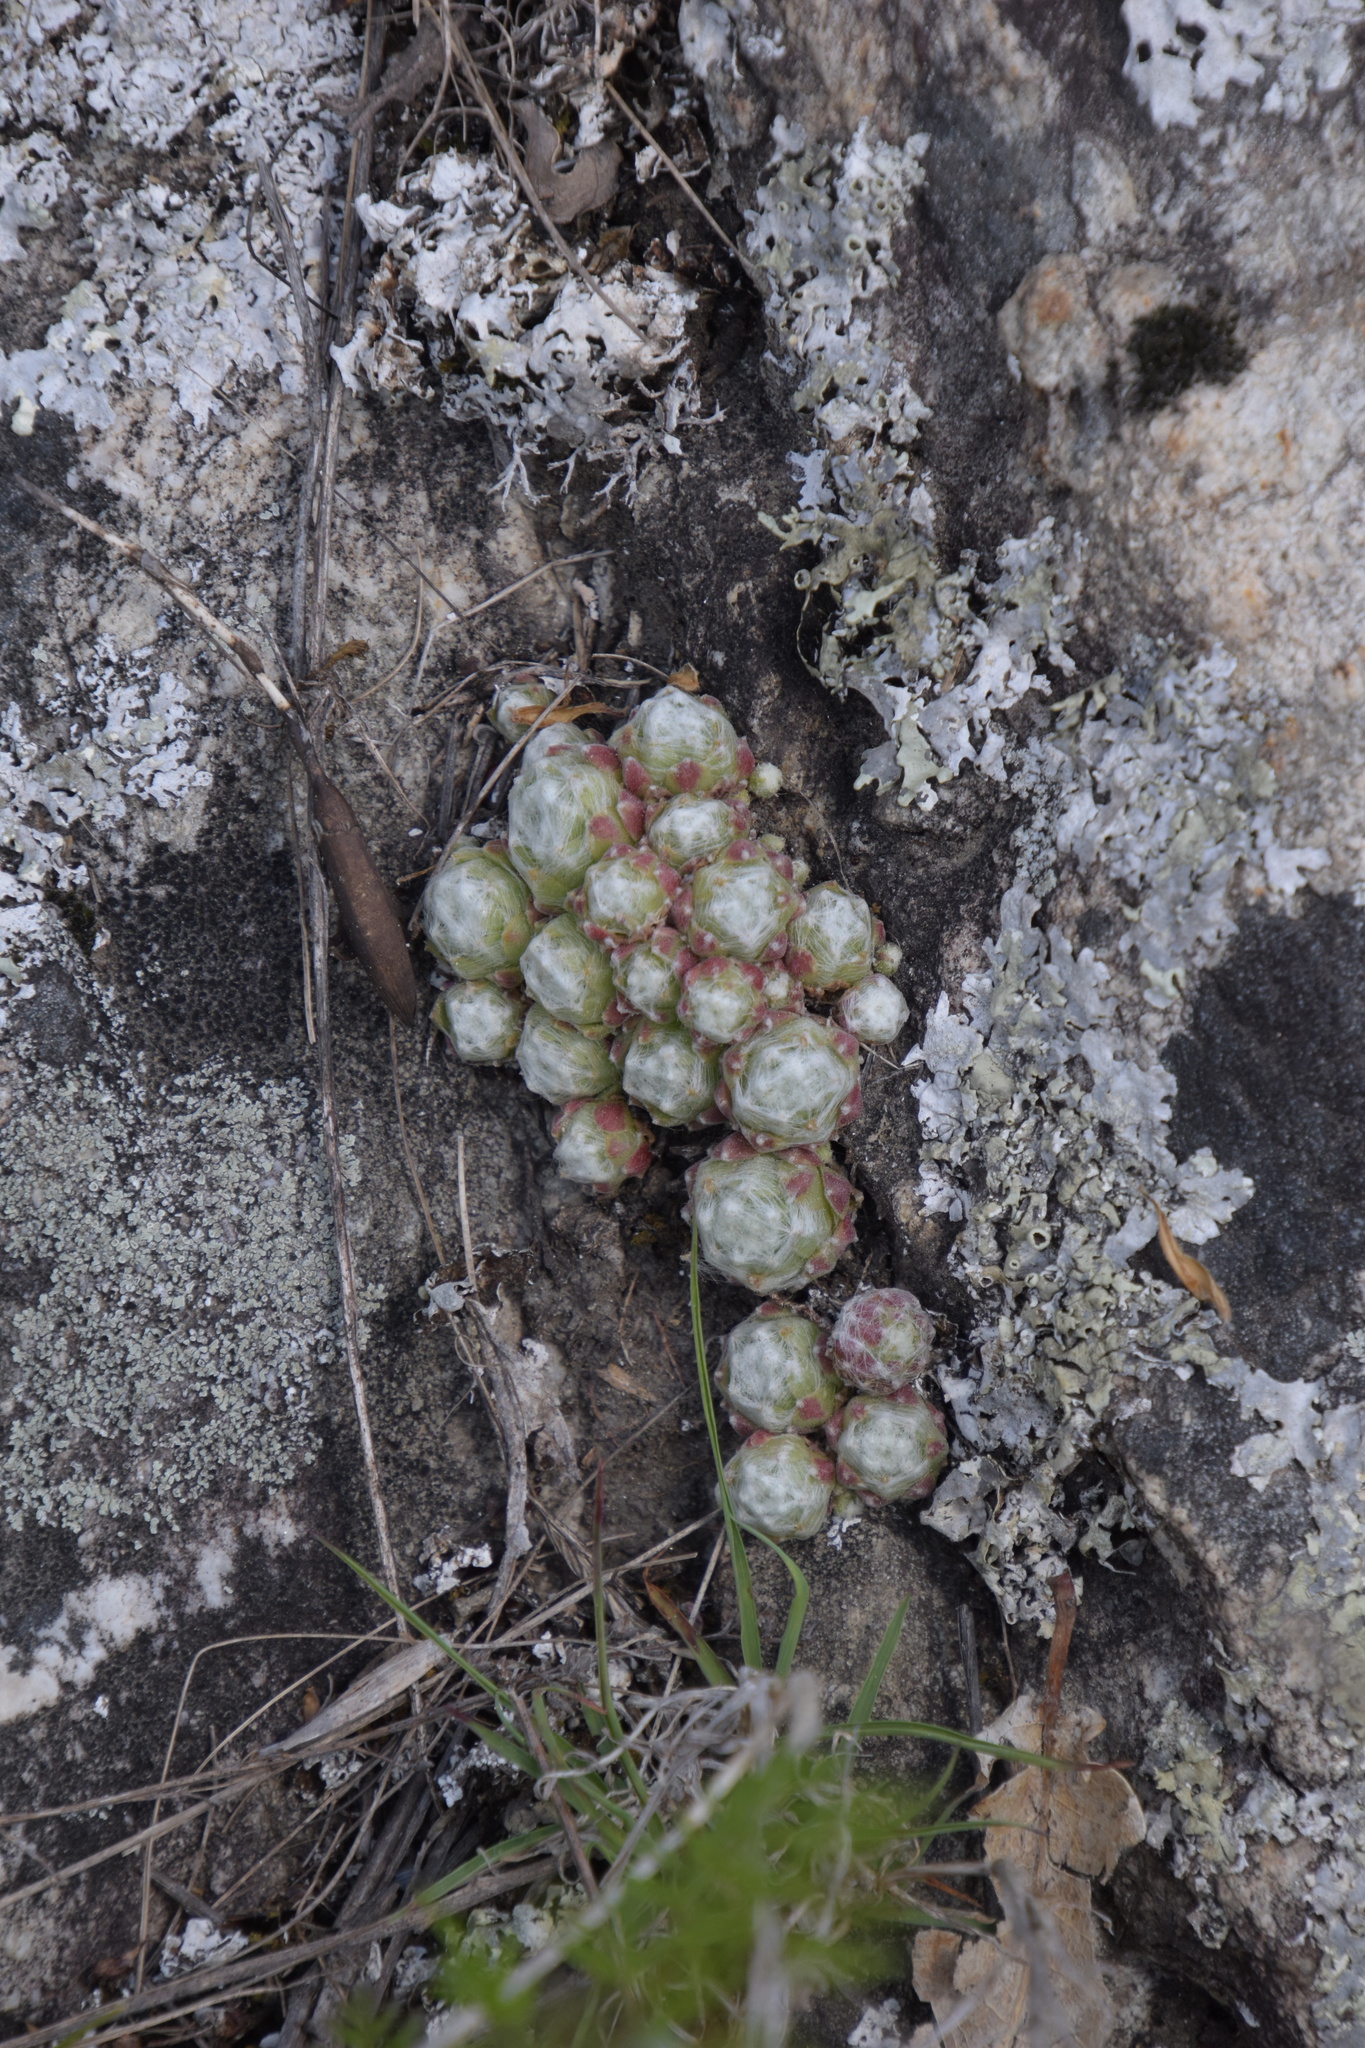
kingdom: Plantae
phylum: Tracheophyta
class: Magnoliopsida
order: Saxifragales
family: Crassulaceae
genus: Sempervivum
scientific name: Sempervivum arachnoideum
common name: Cobweb house-leek
